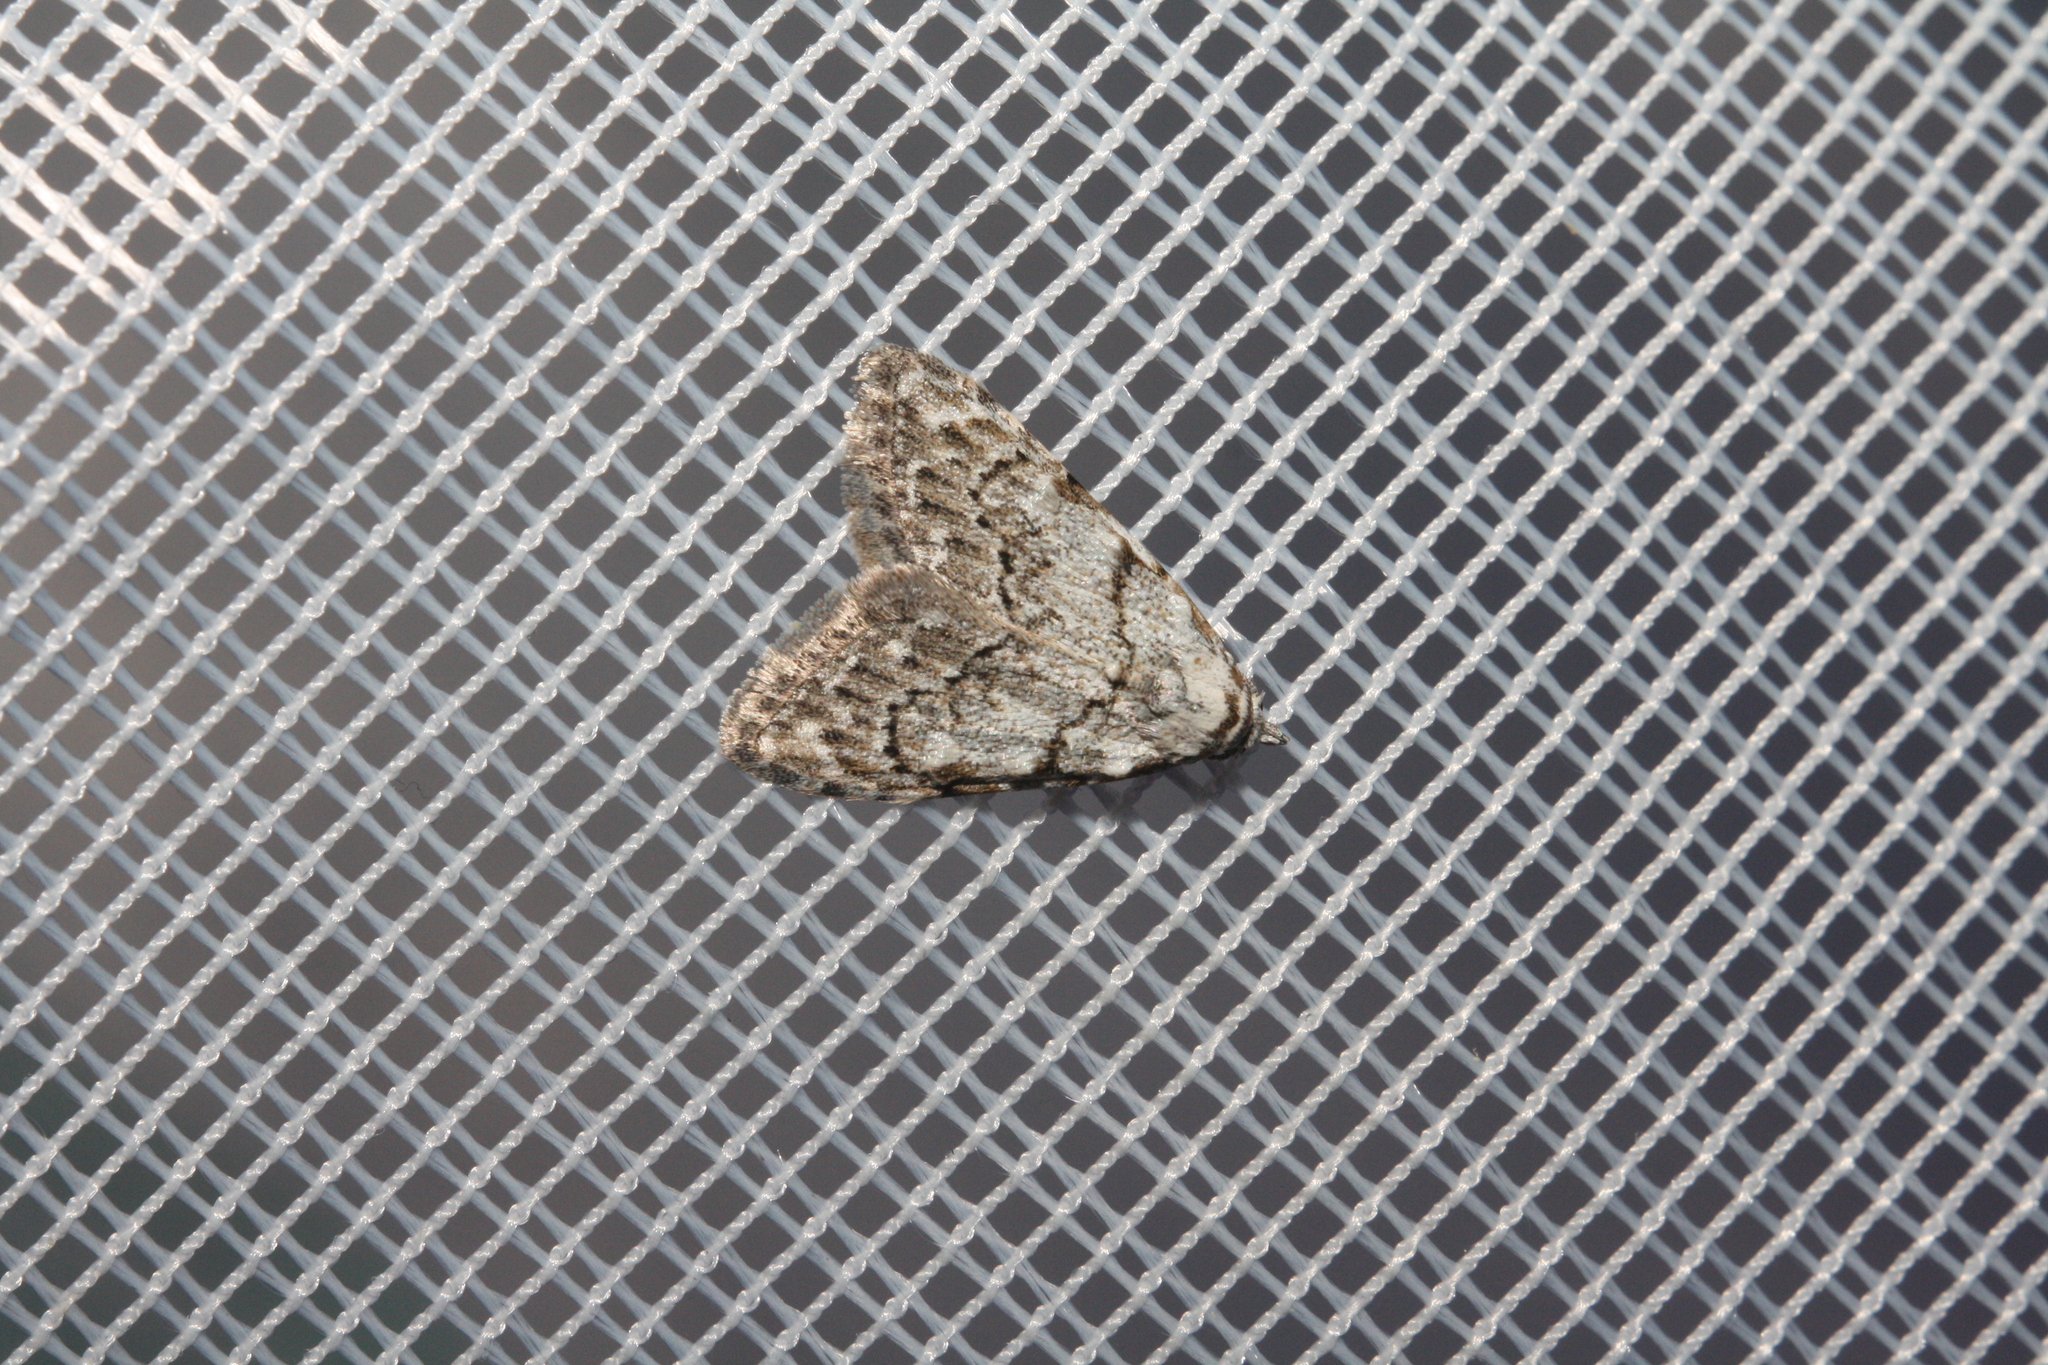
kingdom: Animalia
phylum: Arthropoda
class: Insecta
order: Lepidoptera
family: Nolidae
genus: Nola
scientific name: Nola confusalis
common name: Least black arches
